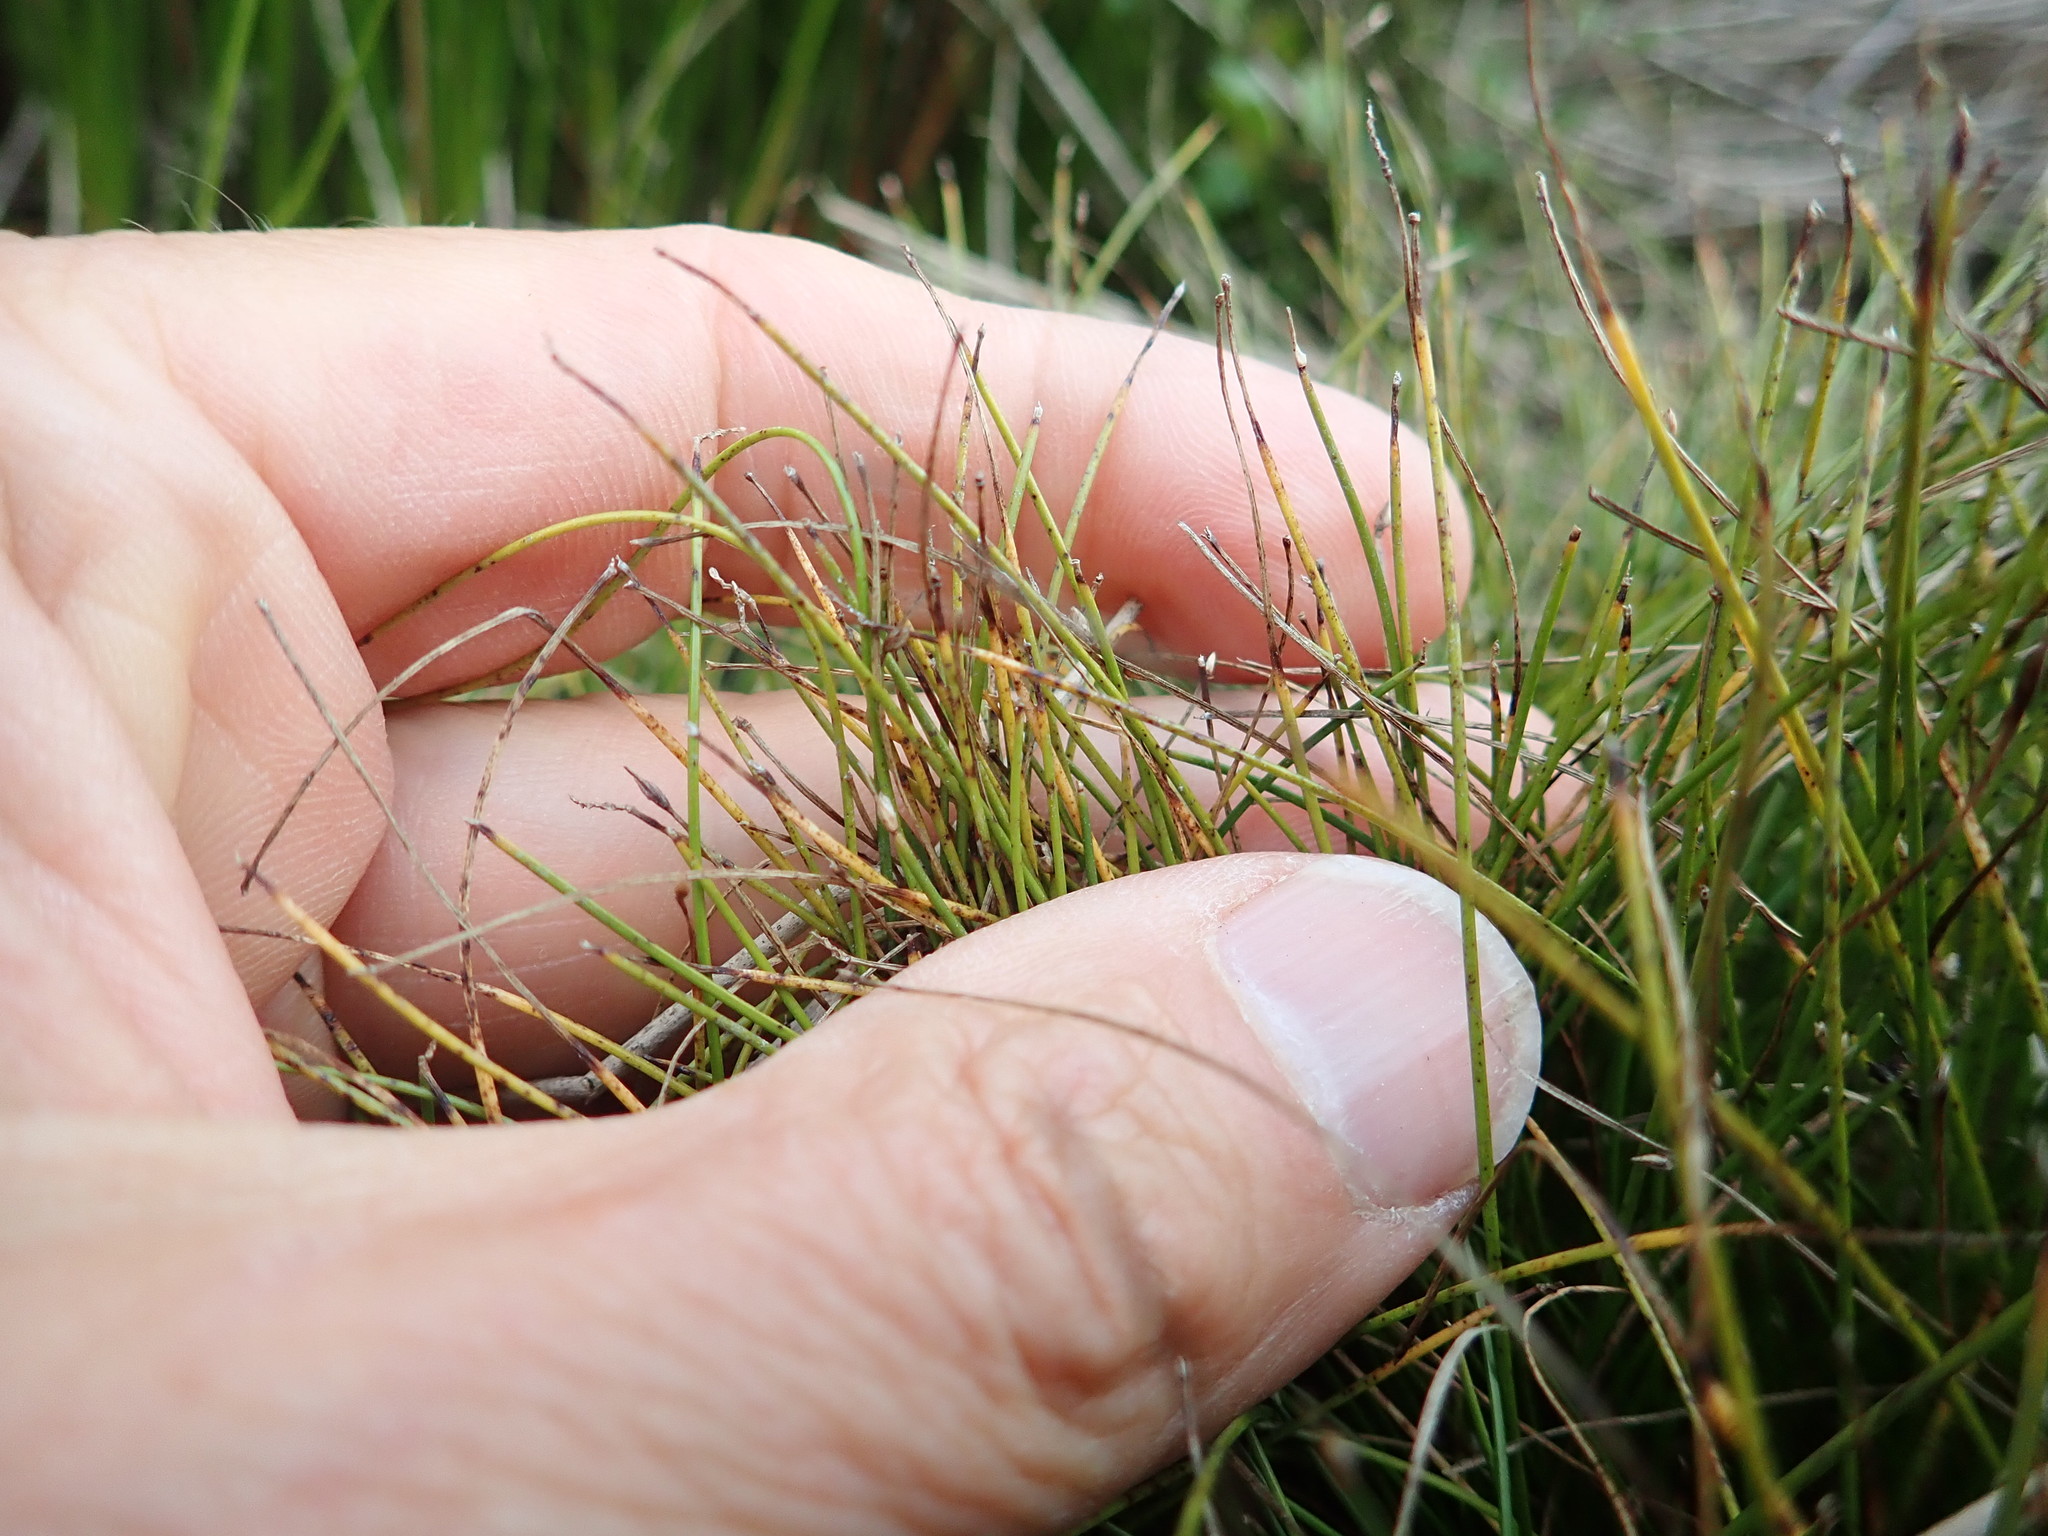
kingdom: Plantae
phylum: Tracheophyta
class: Liliopsida
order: Poales
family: Cyperaceae
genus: Isolepis
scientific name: Isolepis cernua
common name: Slender club-rush
